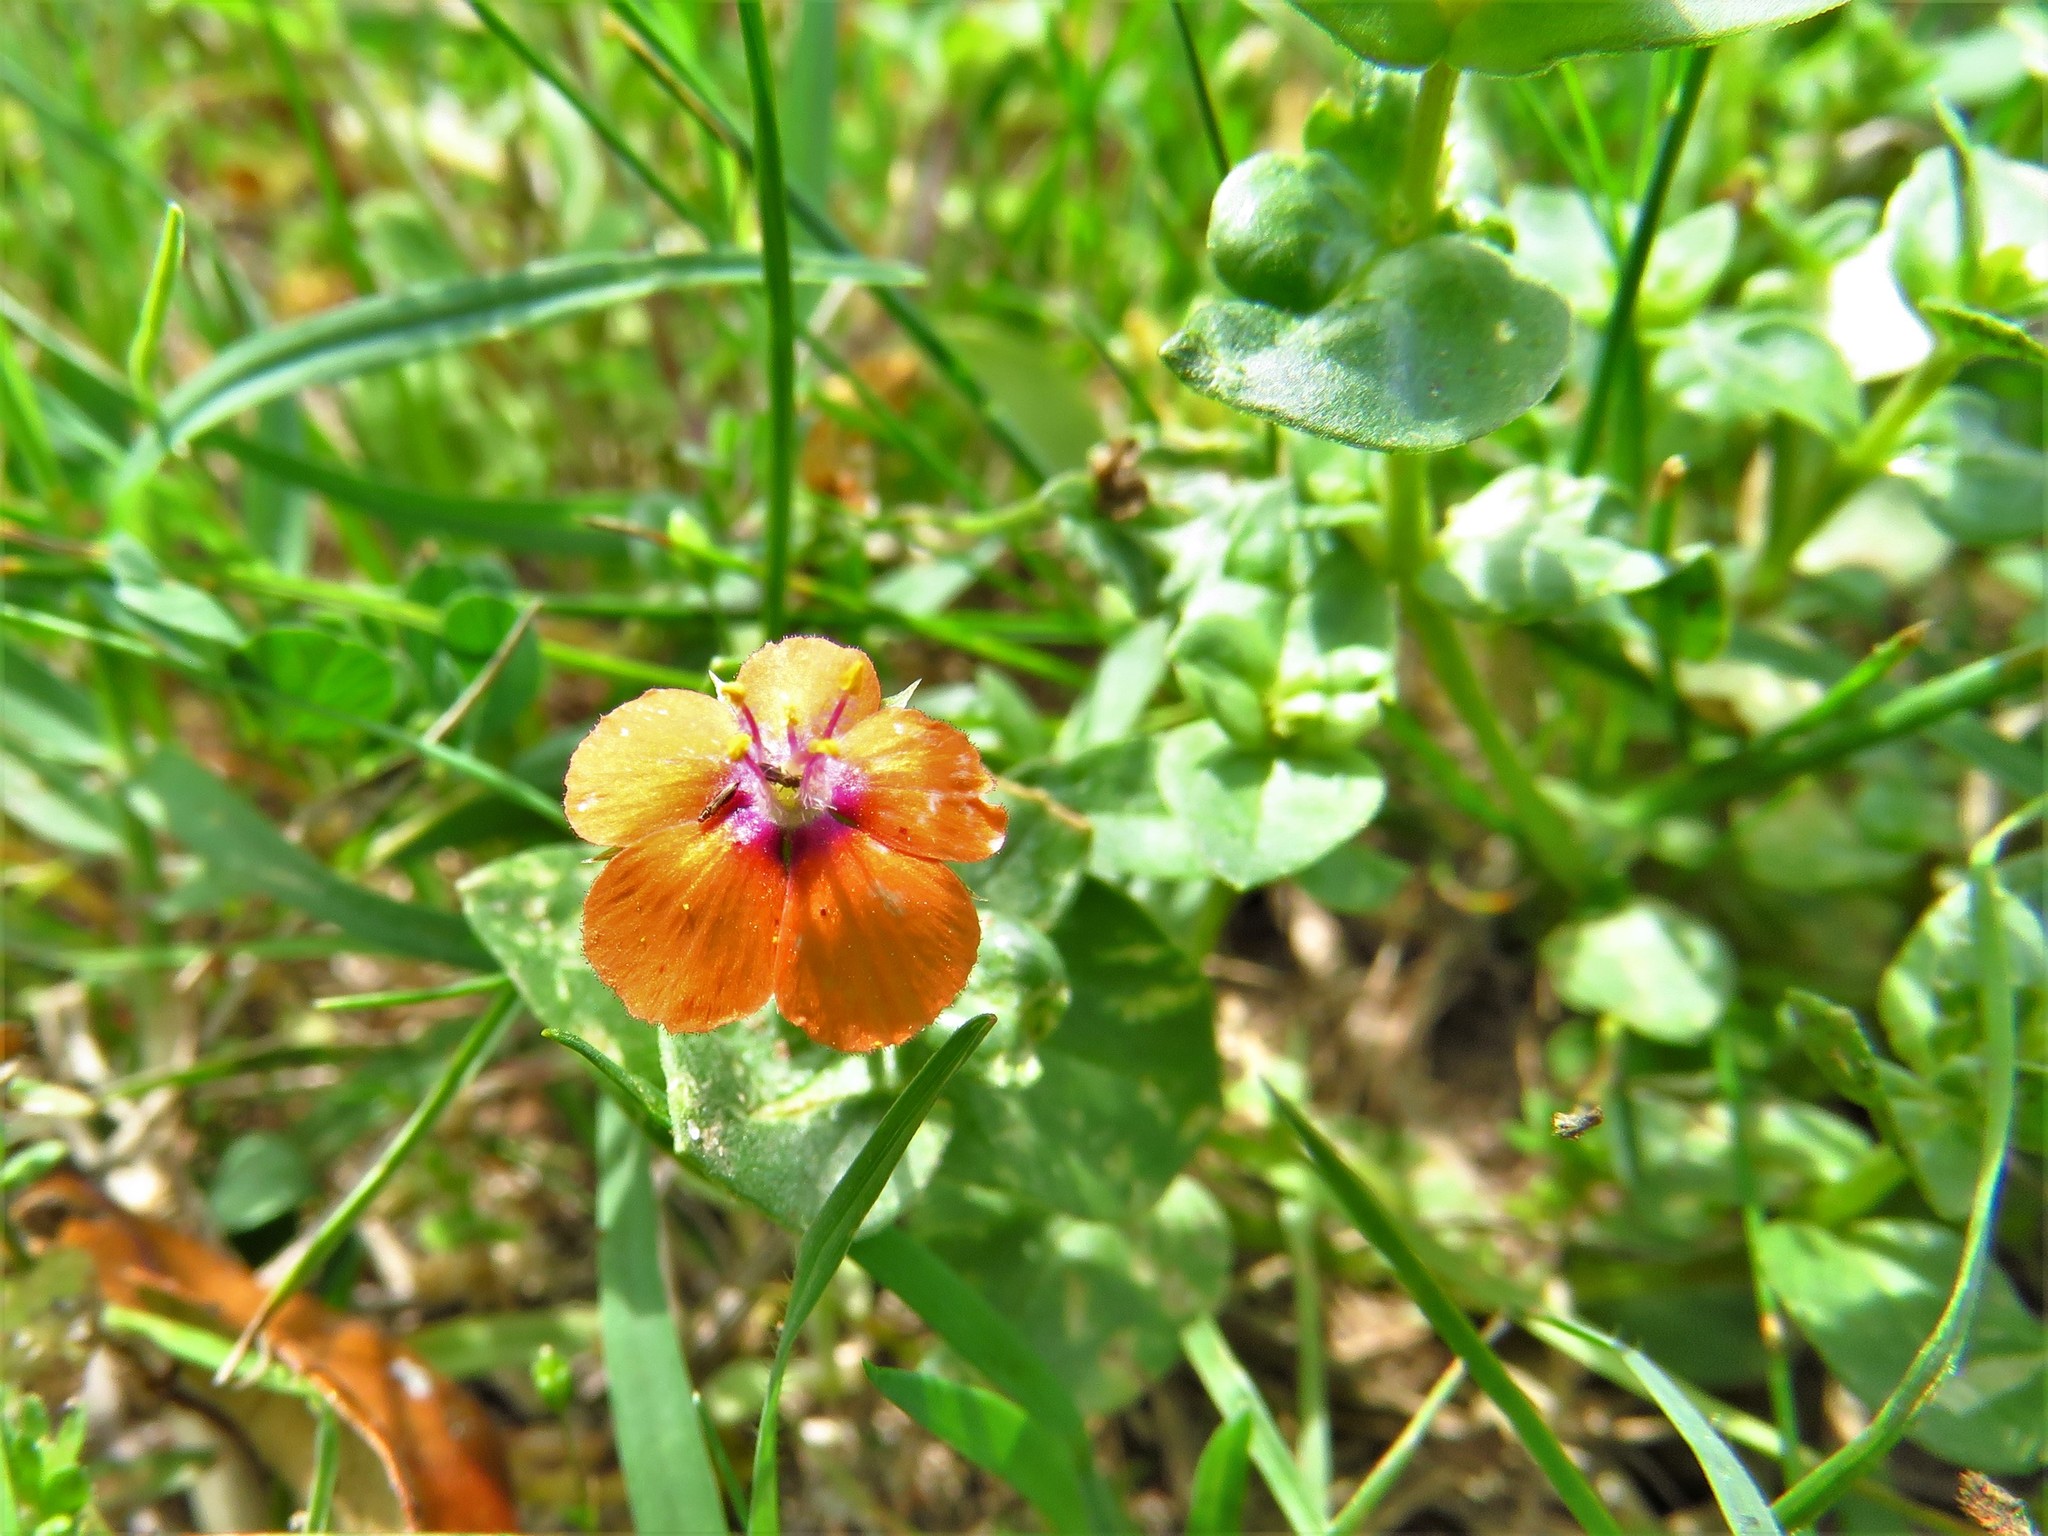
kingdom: Plantae
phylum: Tracheophyta
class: Magnoliopsida
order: Ericales
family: Primulaceae
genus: Lysimachia
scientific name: Lysimachia arvensis
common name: Scarlet pimpernel
